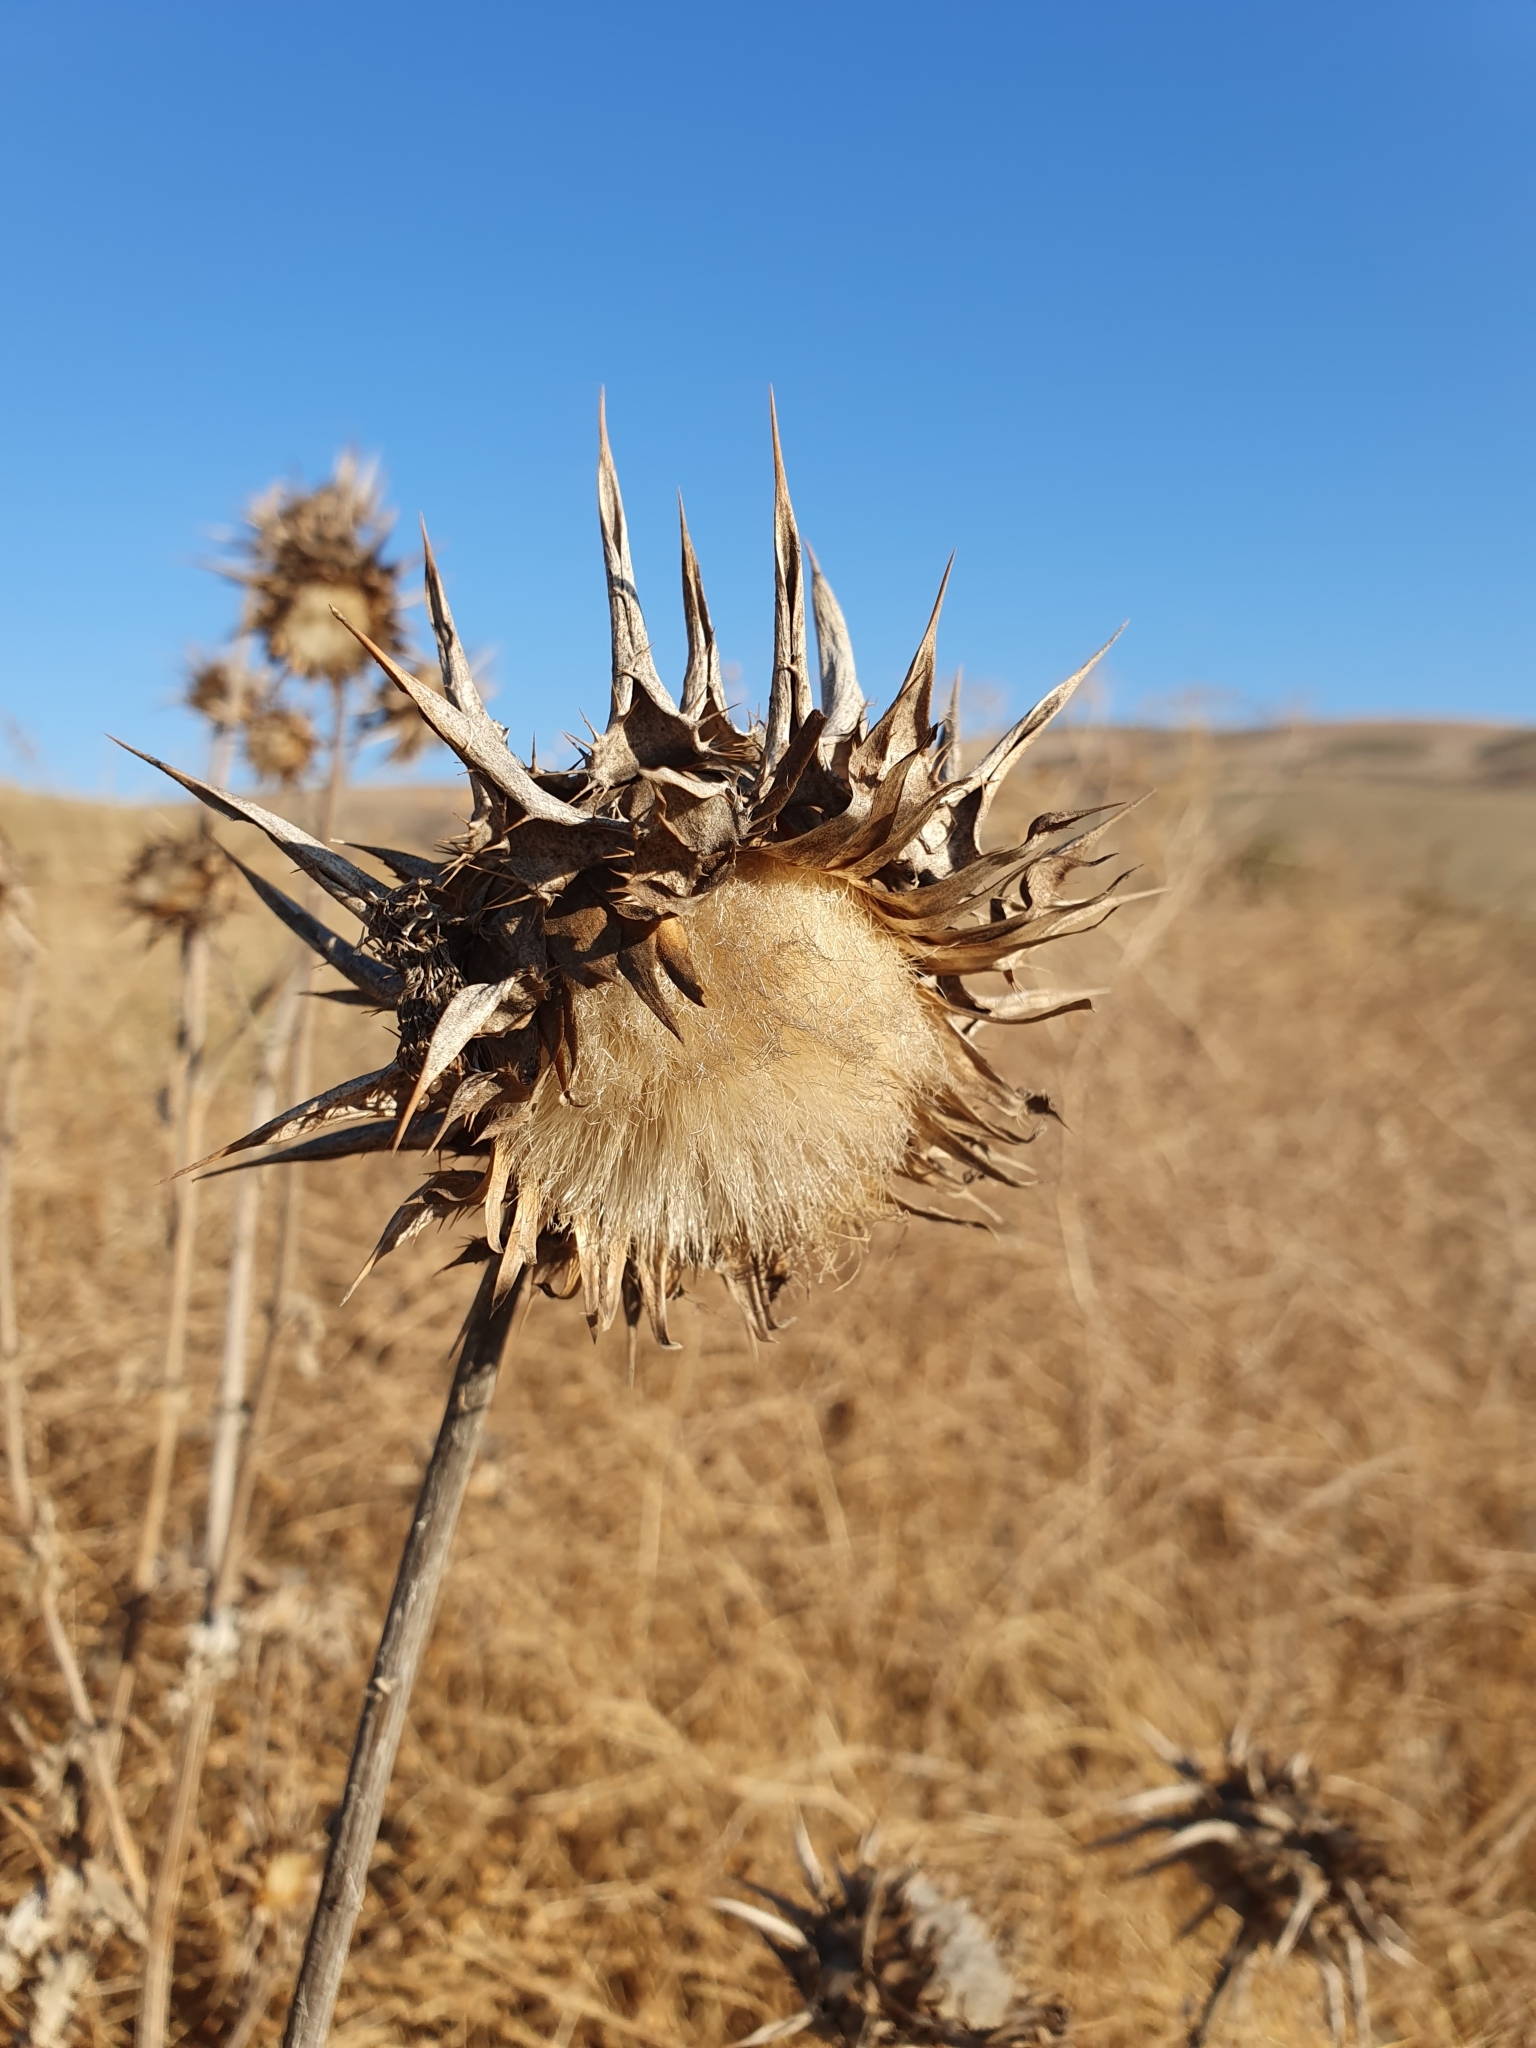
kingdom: Plantae
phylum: Tracheophyta
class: Magnoliopsida
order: Asterales
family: Asteraceae
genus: Silybum
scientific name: Silybum marianum
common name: Milk thistle
